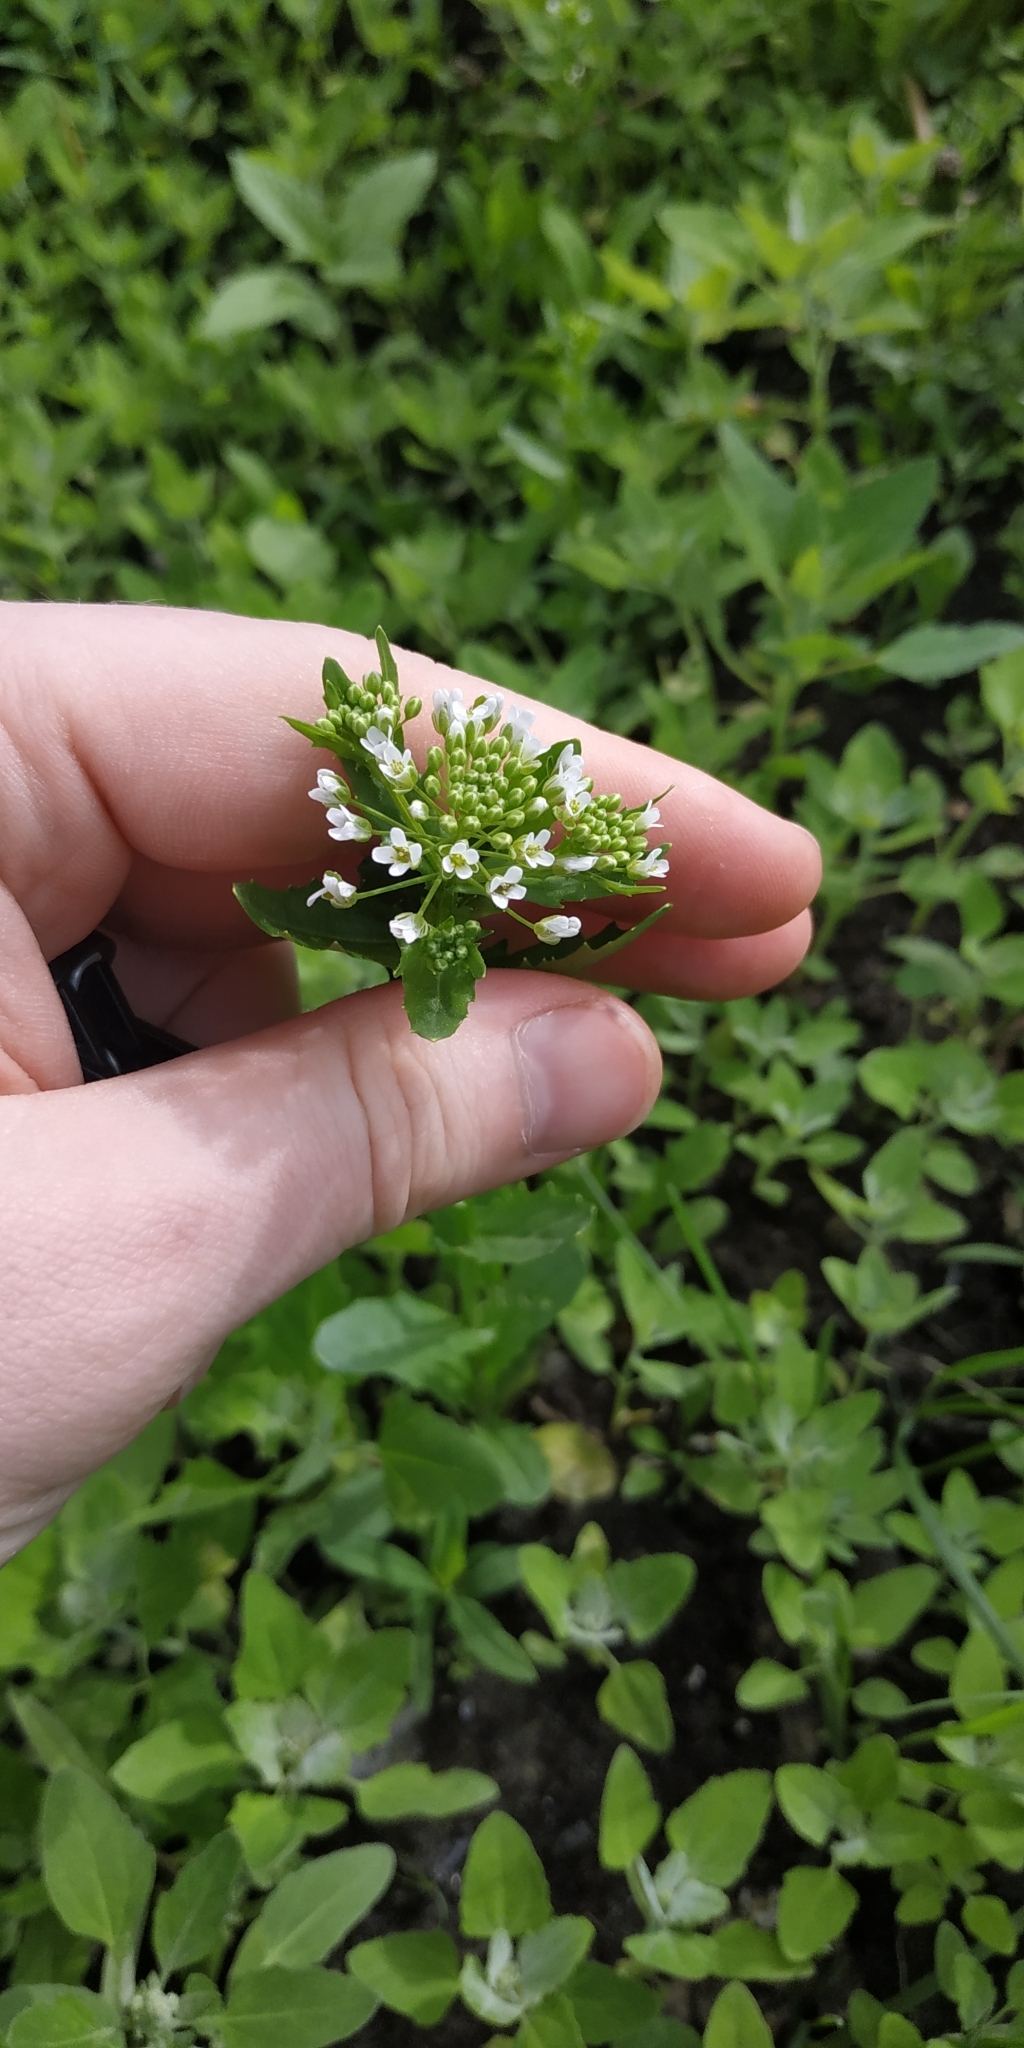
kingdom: Plantae
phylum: Tracheophyta
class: Magnoliopsida
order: Brassicales
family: Brassicaceae
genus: Thlaspi
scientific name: Thlaspi arvense
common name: Field pennycress
